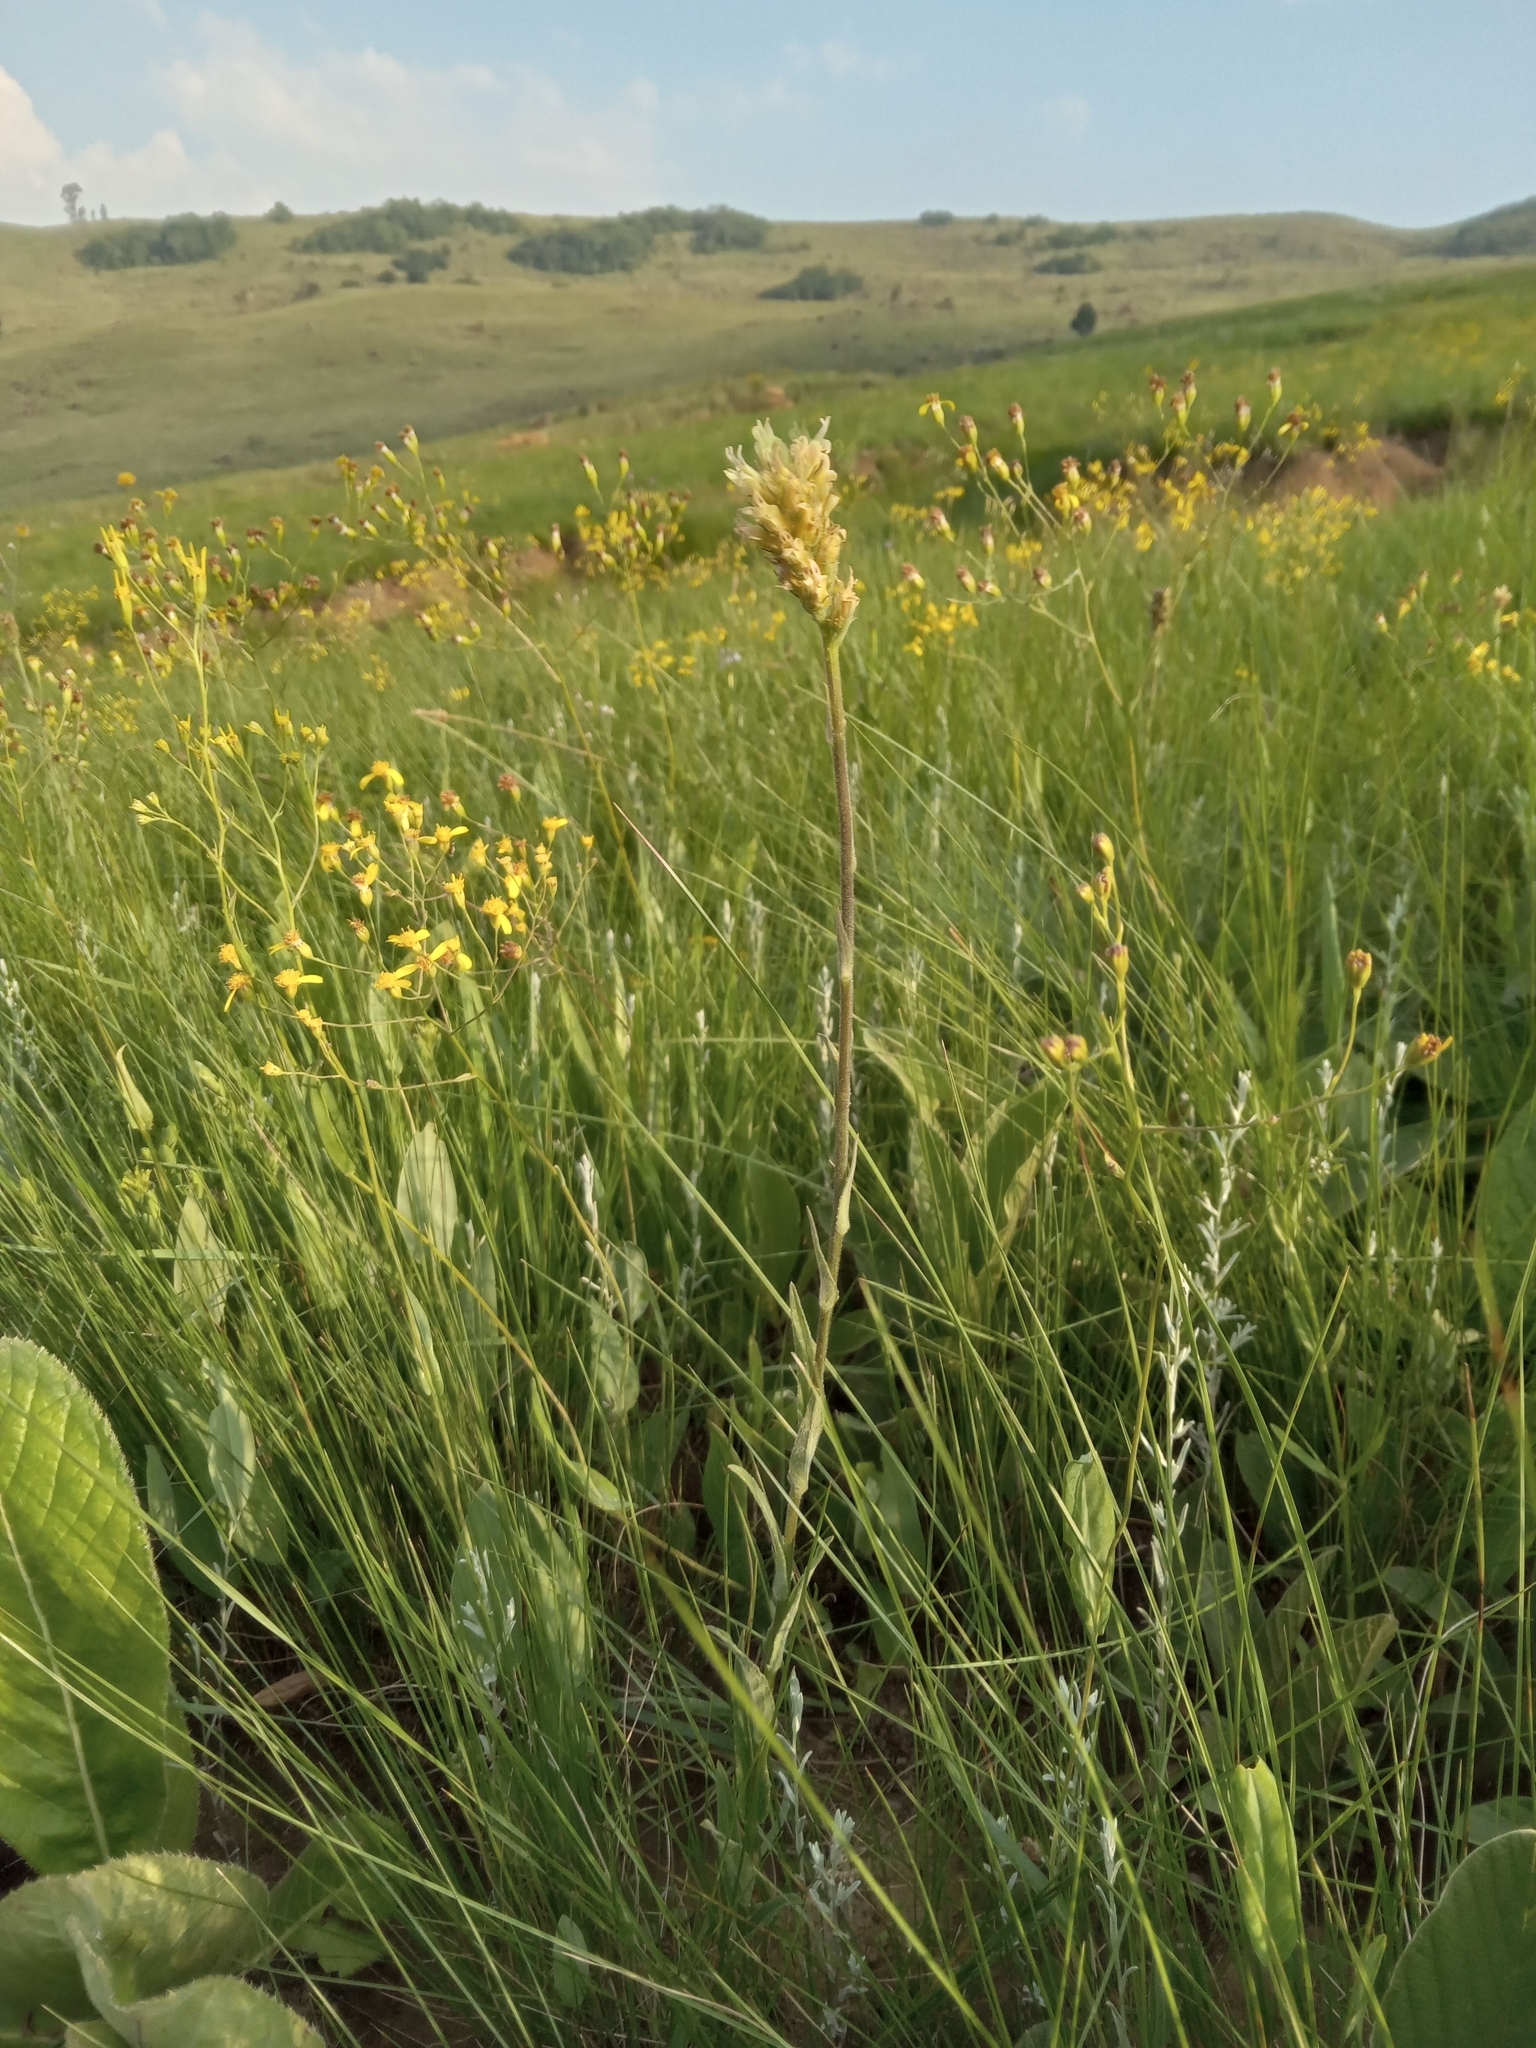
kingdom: Plantae
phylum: Tracheophyta
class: Magnoliopsida
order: Asterales
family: Campanulaceae
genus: Cyphia
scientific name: Cyphia elata
